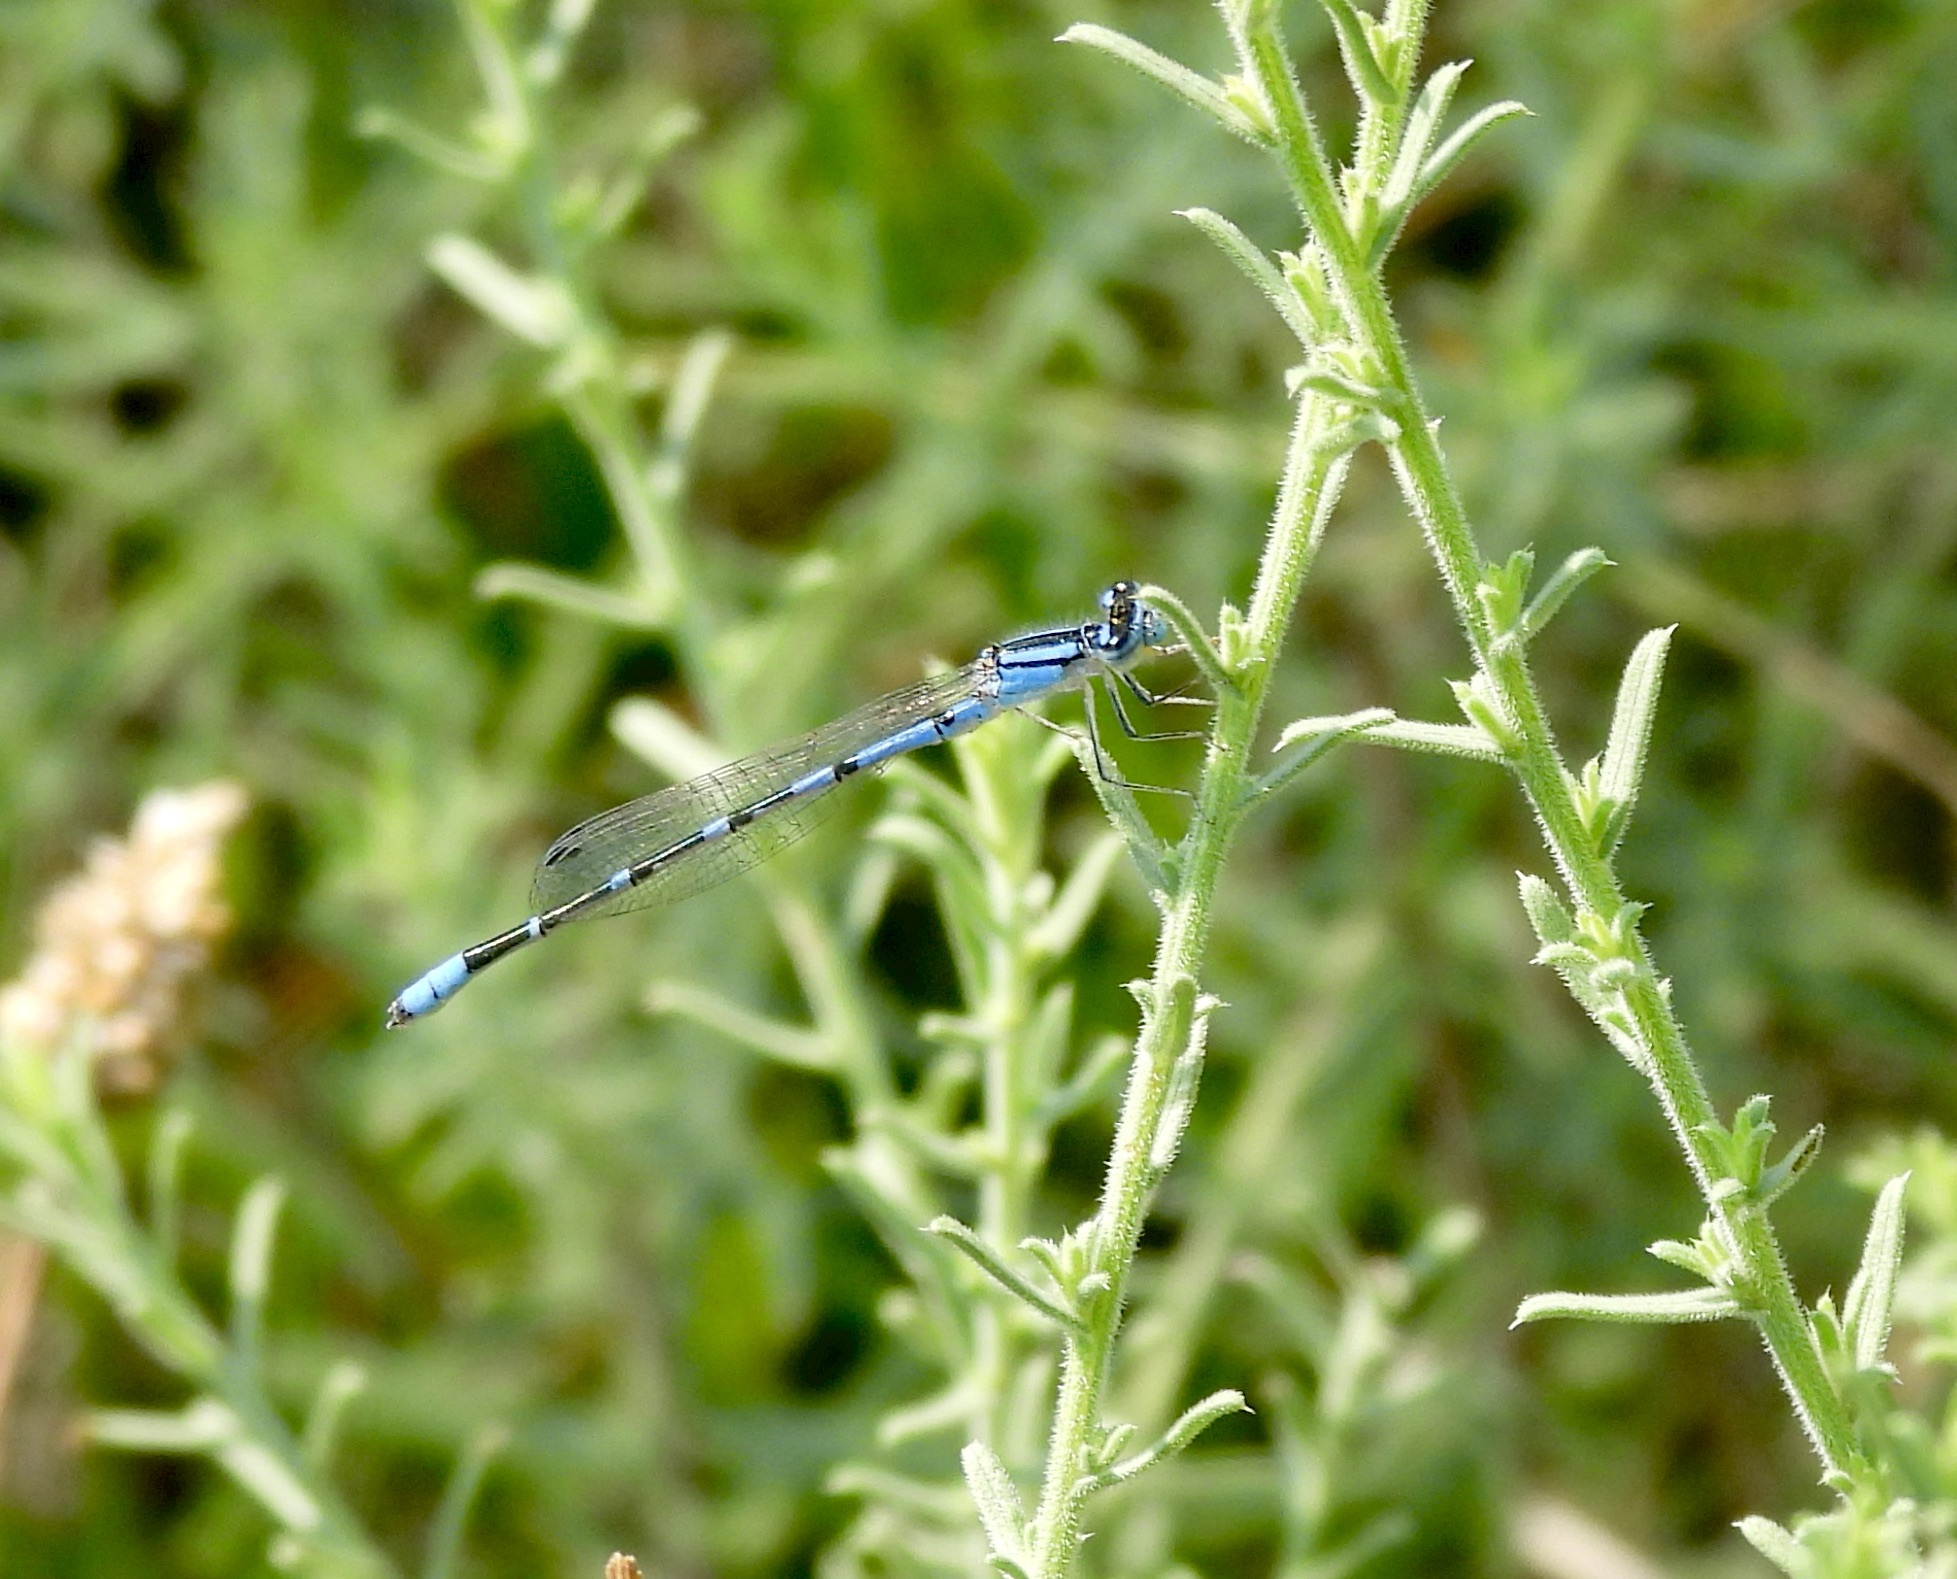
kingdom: Animalia
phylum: Arthropoda
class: Insecta
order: Odonata
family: Coenagrionidae
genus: Enallagma
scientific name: Enallagma praevarum
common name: Arroyo bluet
